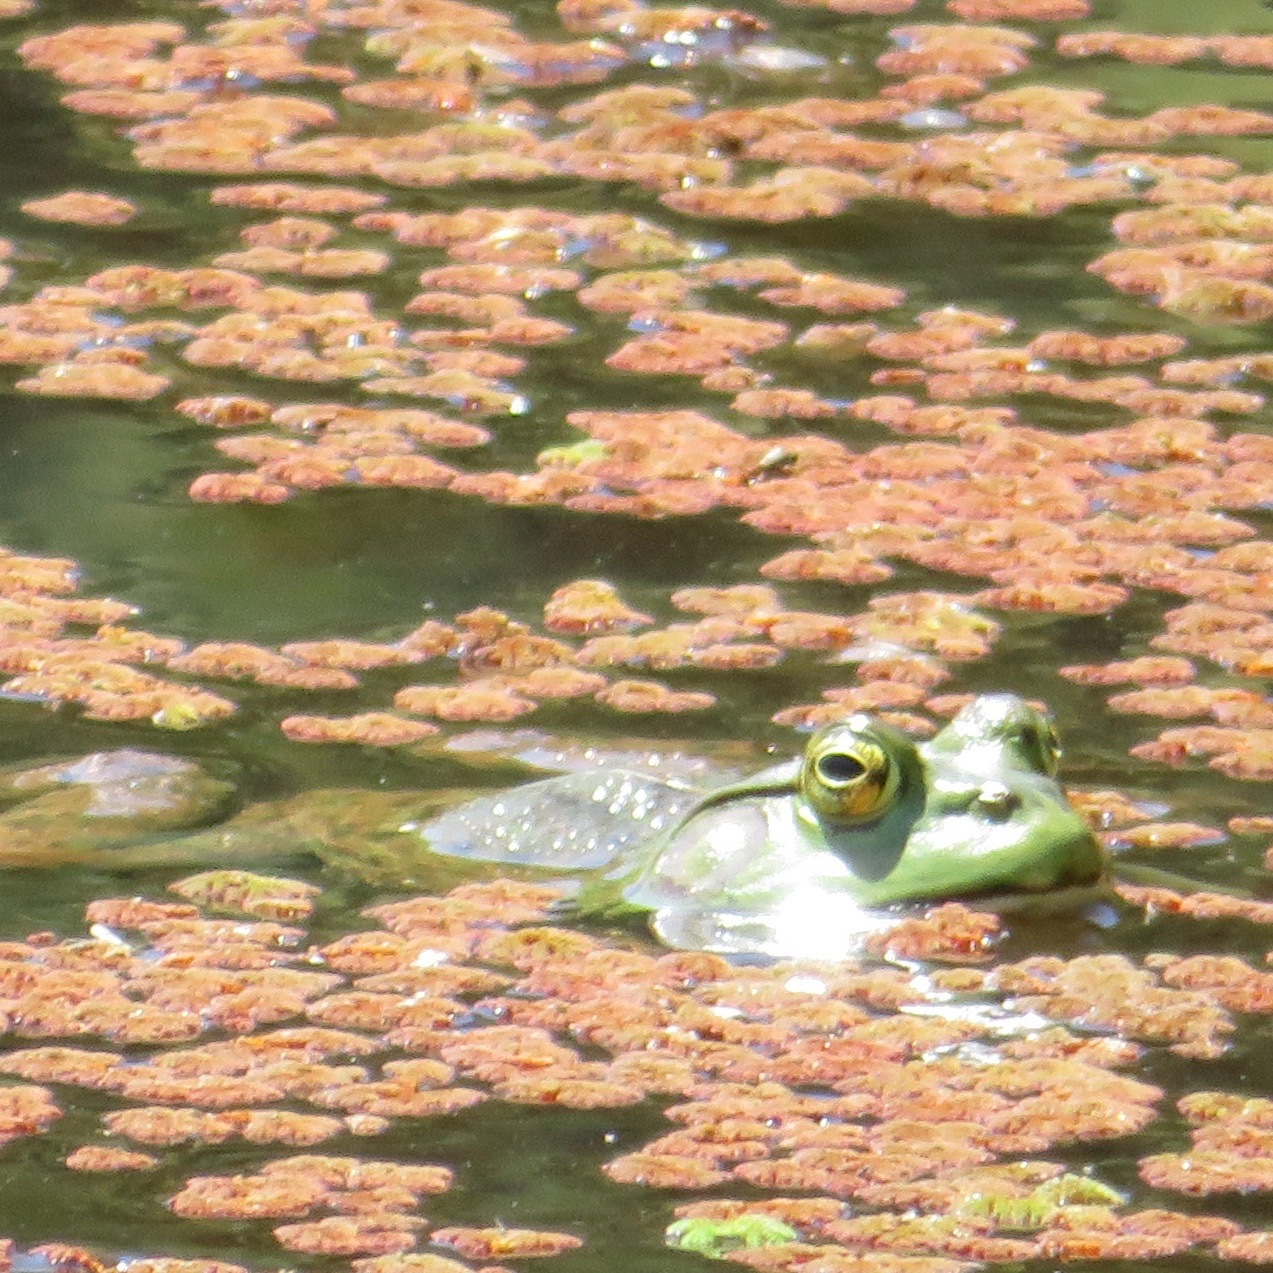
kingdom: Animalia
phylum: Chordata
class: Amphibia
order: Anura
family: Ranidae
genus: Lithobates
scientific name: Lithobates catesbeianus
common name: American bullfrog
